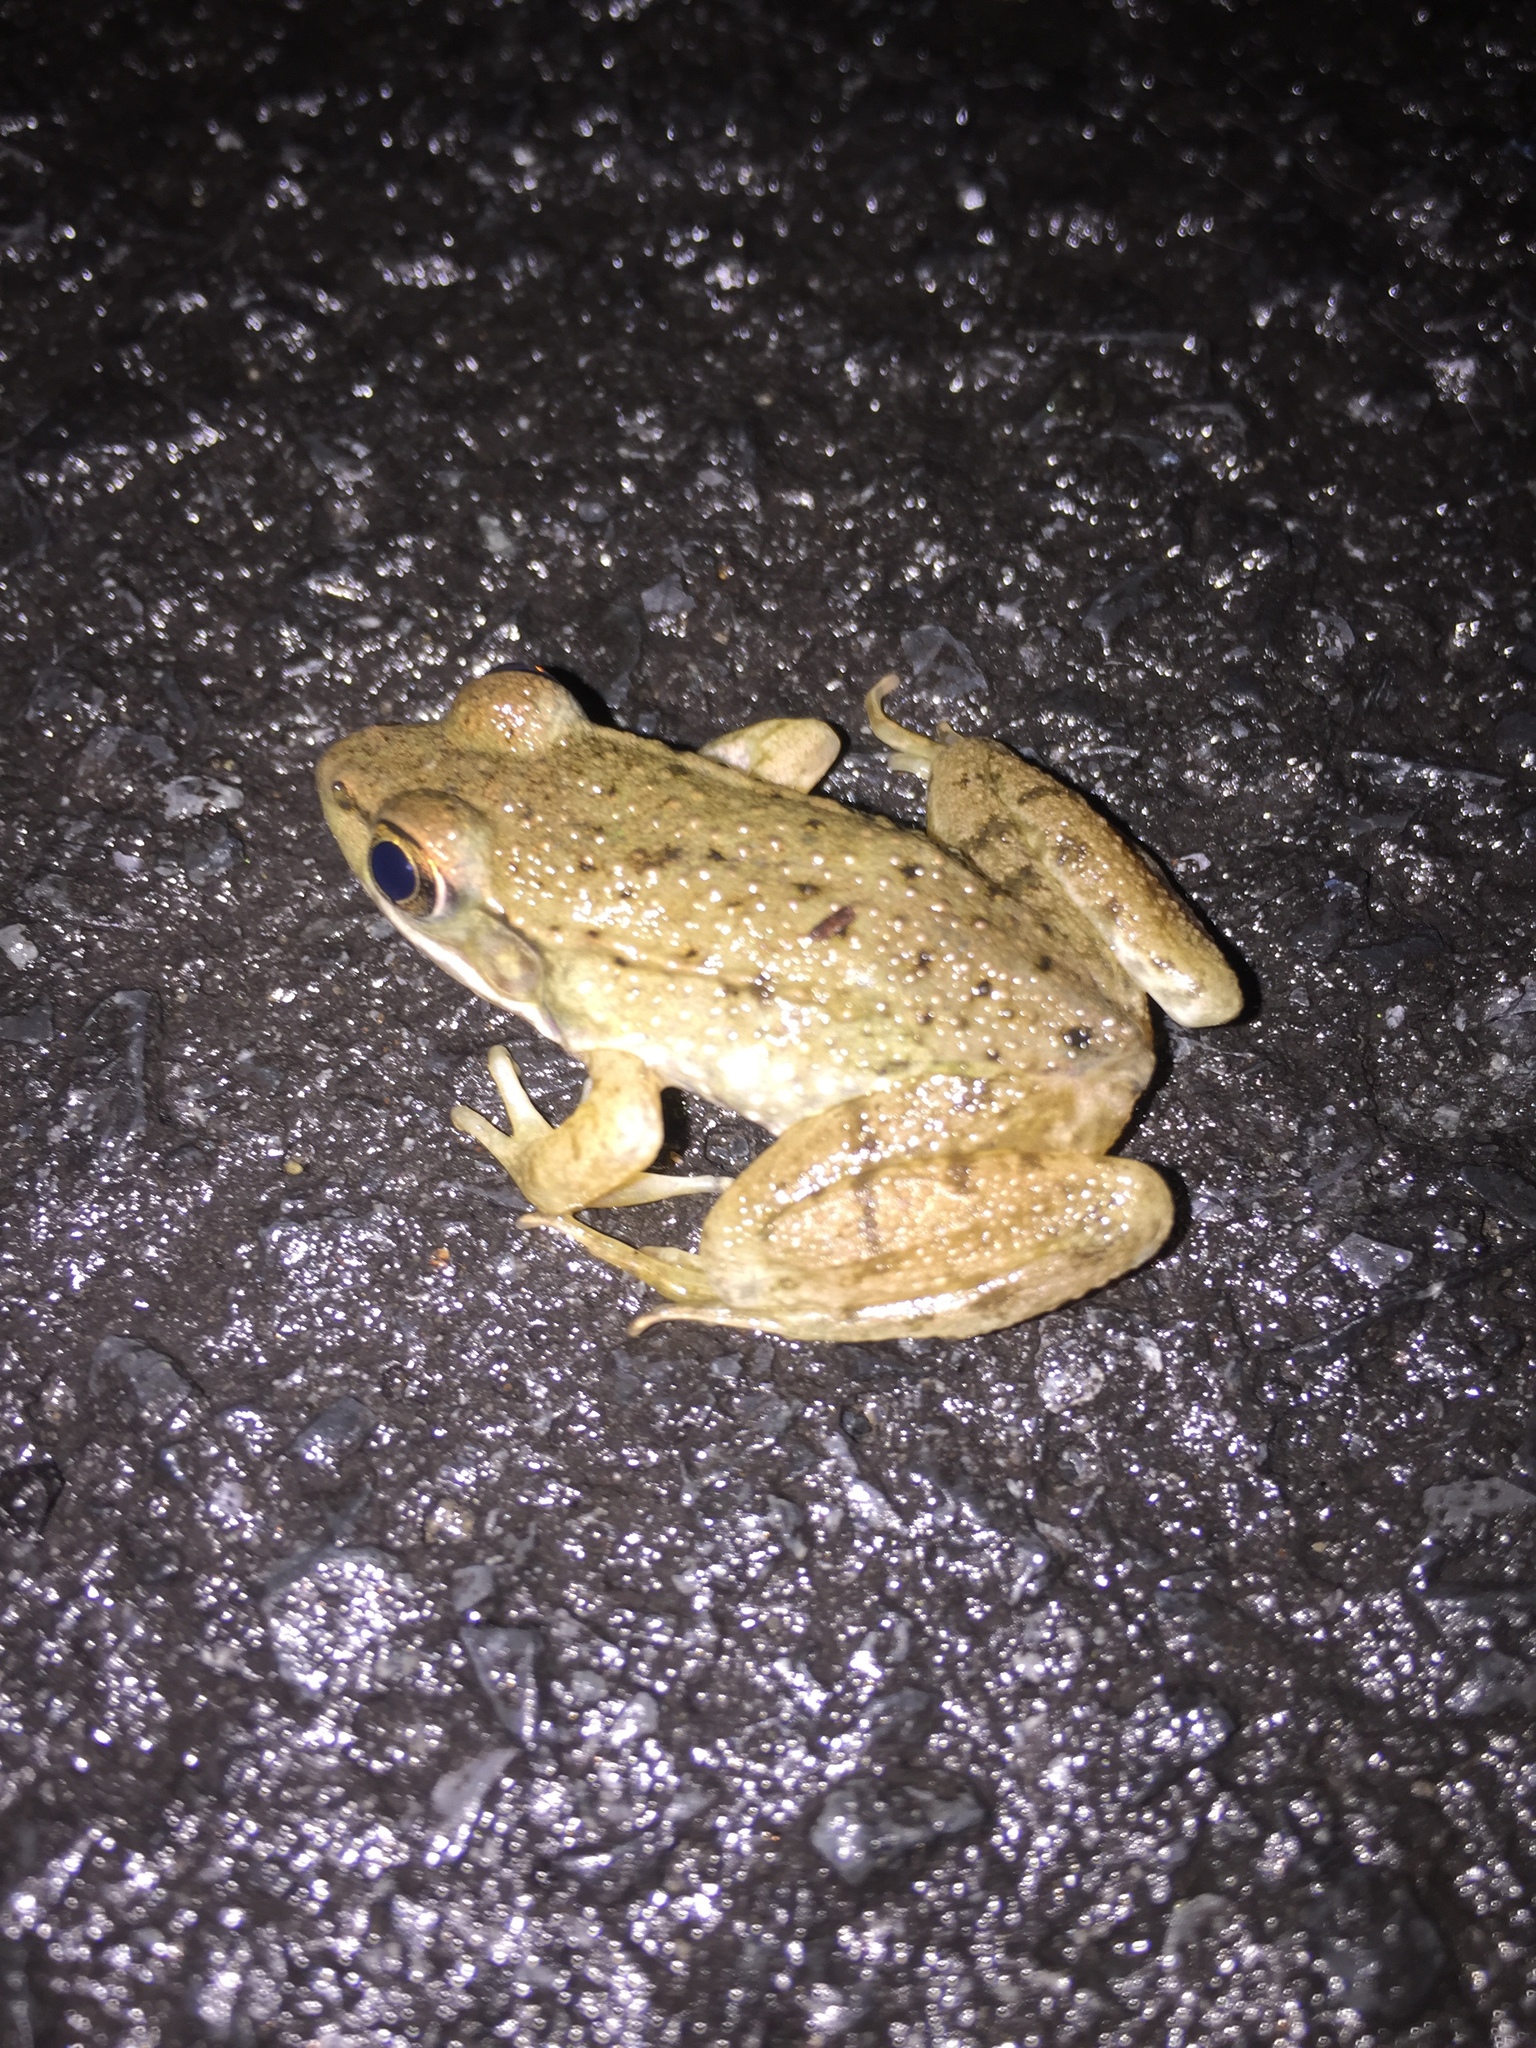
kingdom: Animalia
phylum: Chordata
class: Amphibia
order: Anura
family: Ranidae
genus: Lithobates
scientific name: Lithobates clamitans
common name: Green frog
